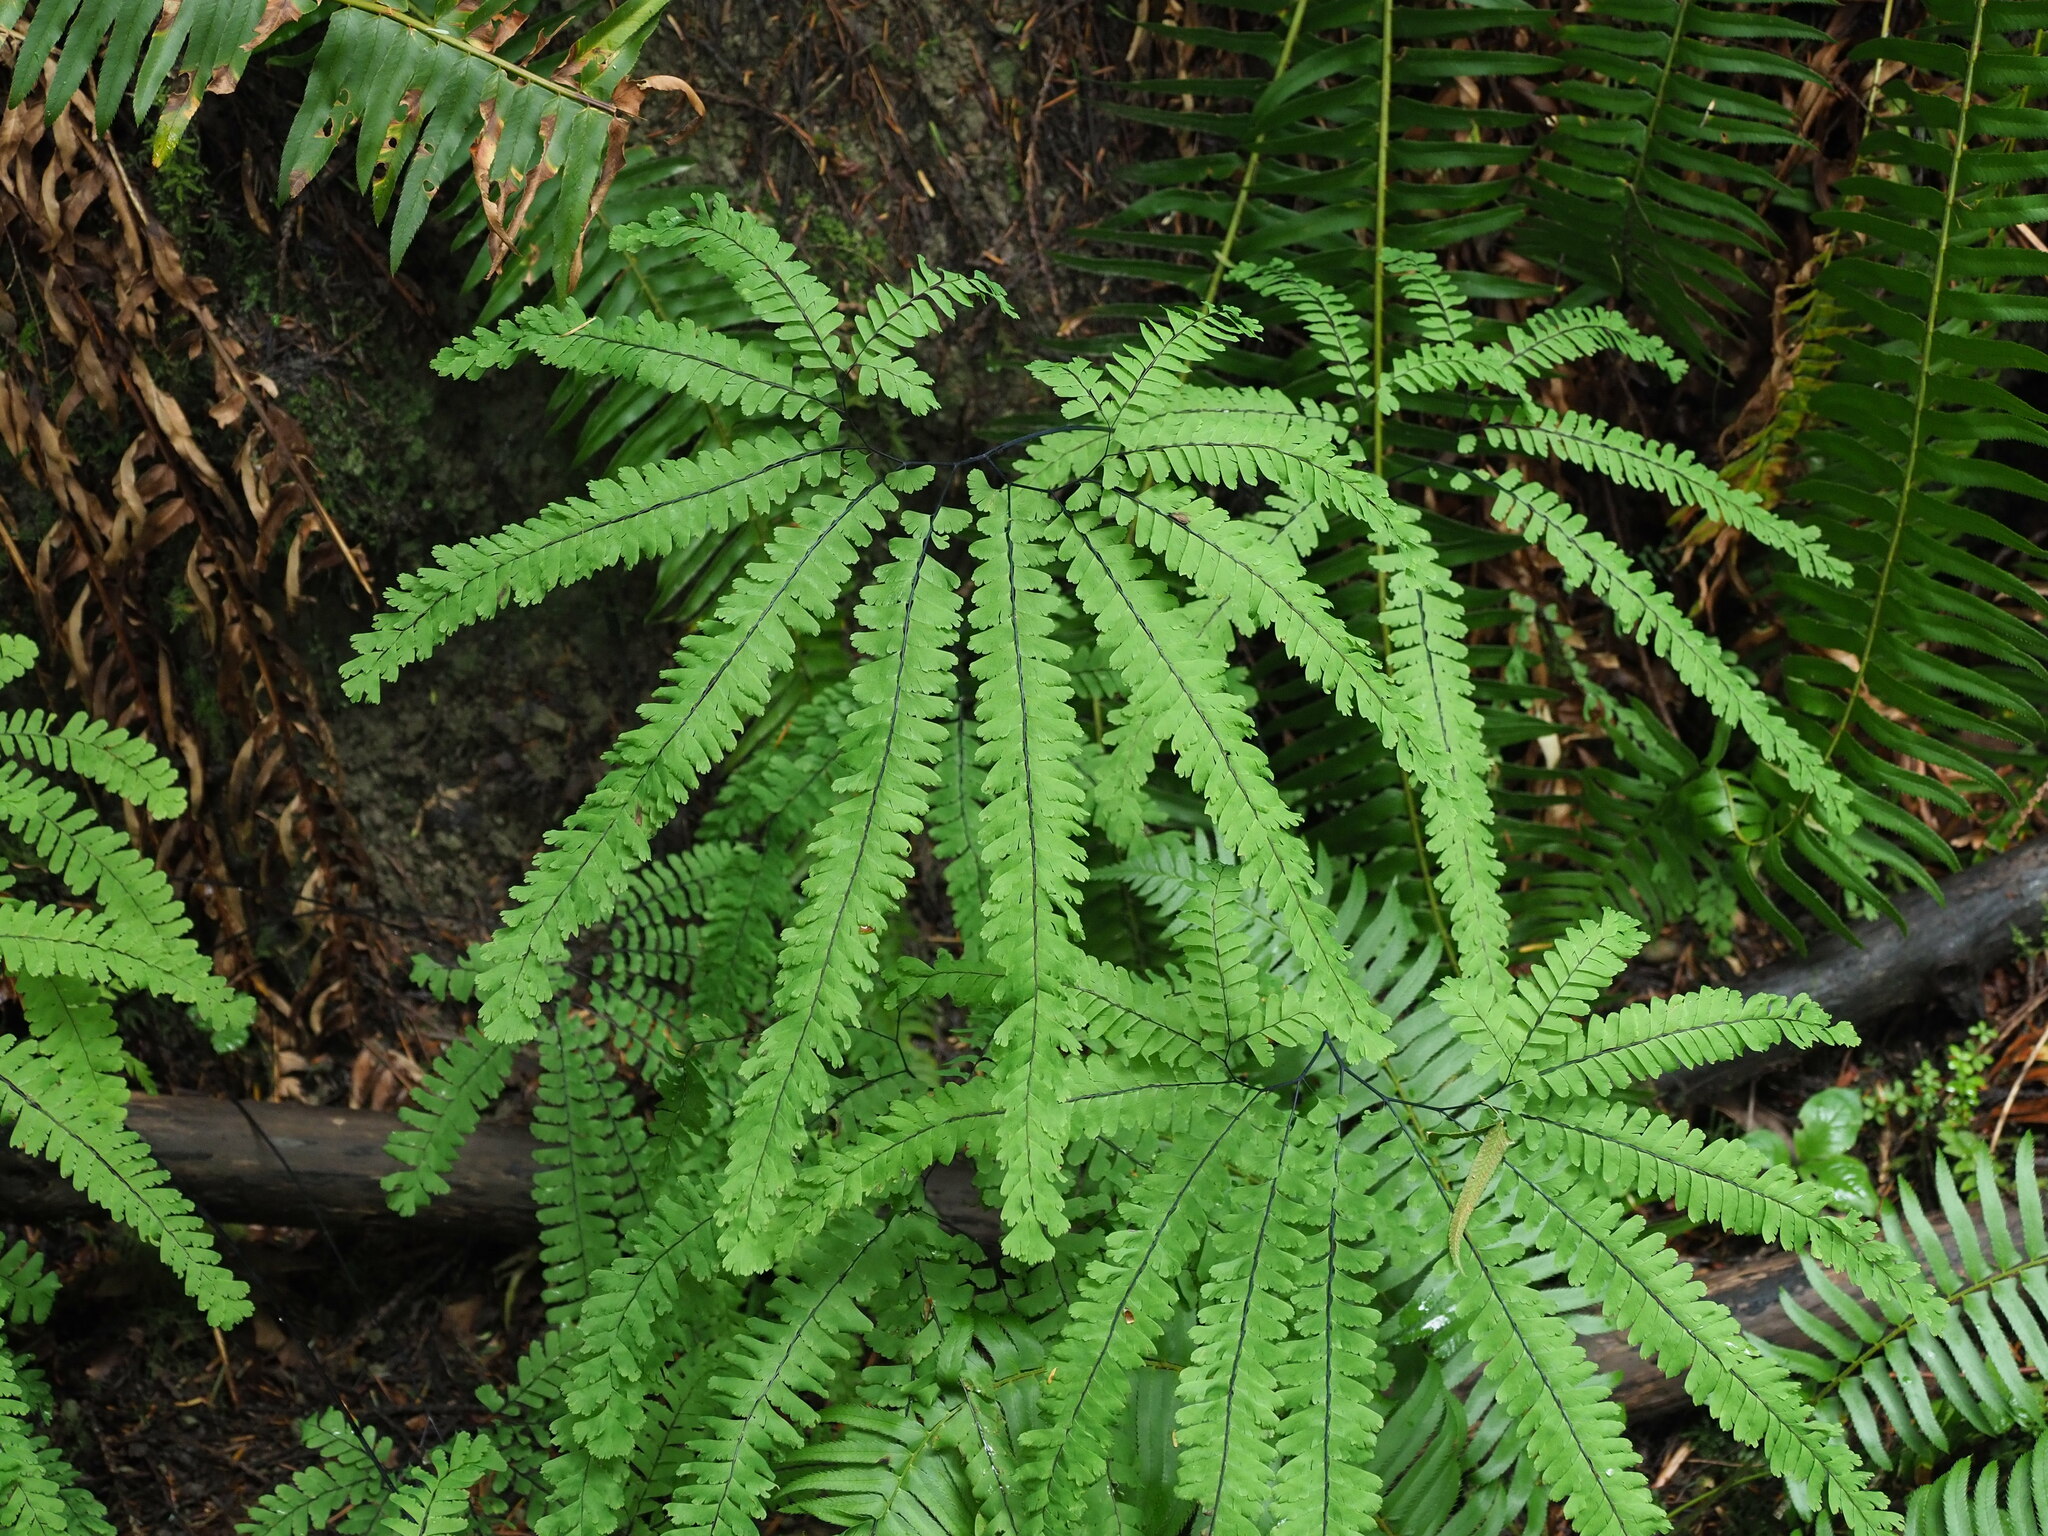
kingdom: Plantae
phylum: Tracheophyta
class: Polypodiopsida
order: Polypodiales
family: Pteridaceae
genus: Adiantum
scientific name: Adiantum aleuticum
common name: Aleutian maidenhair fern
